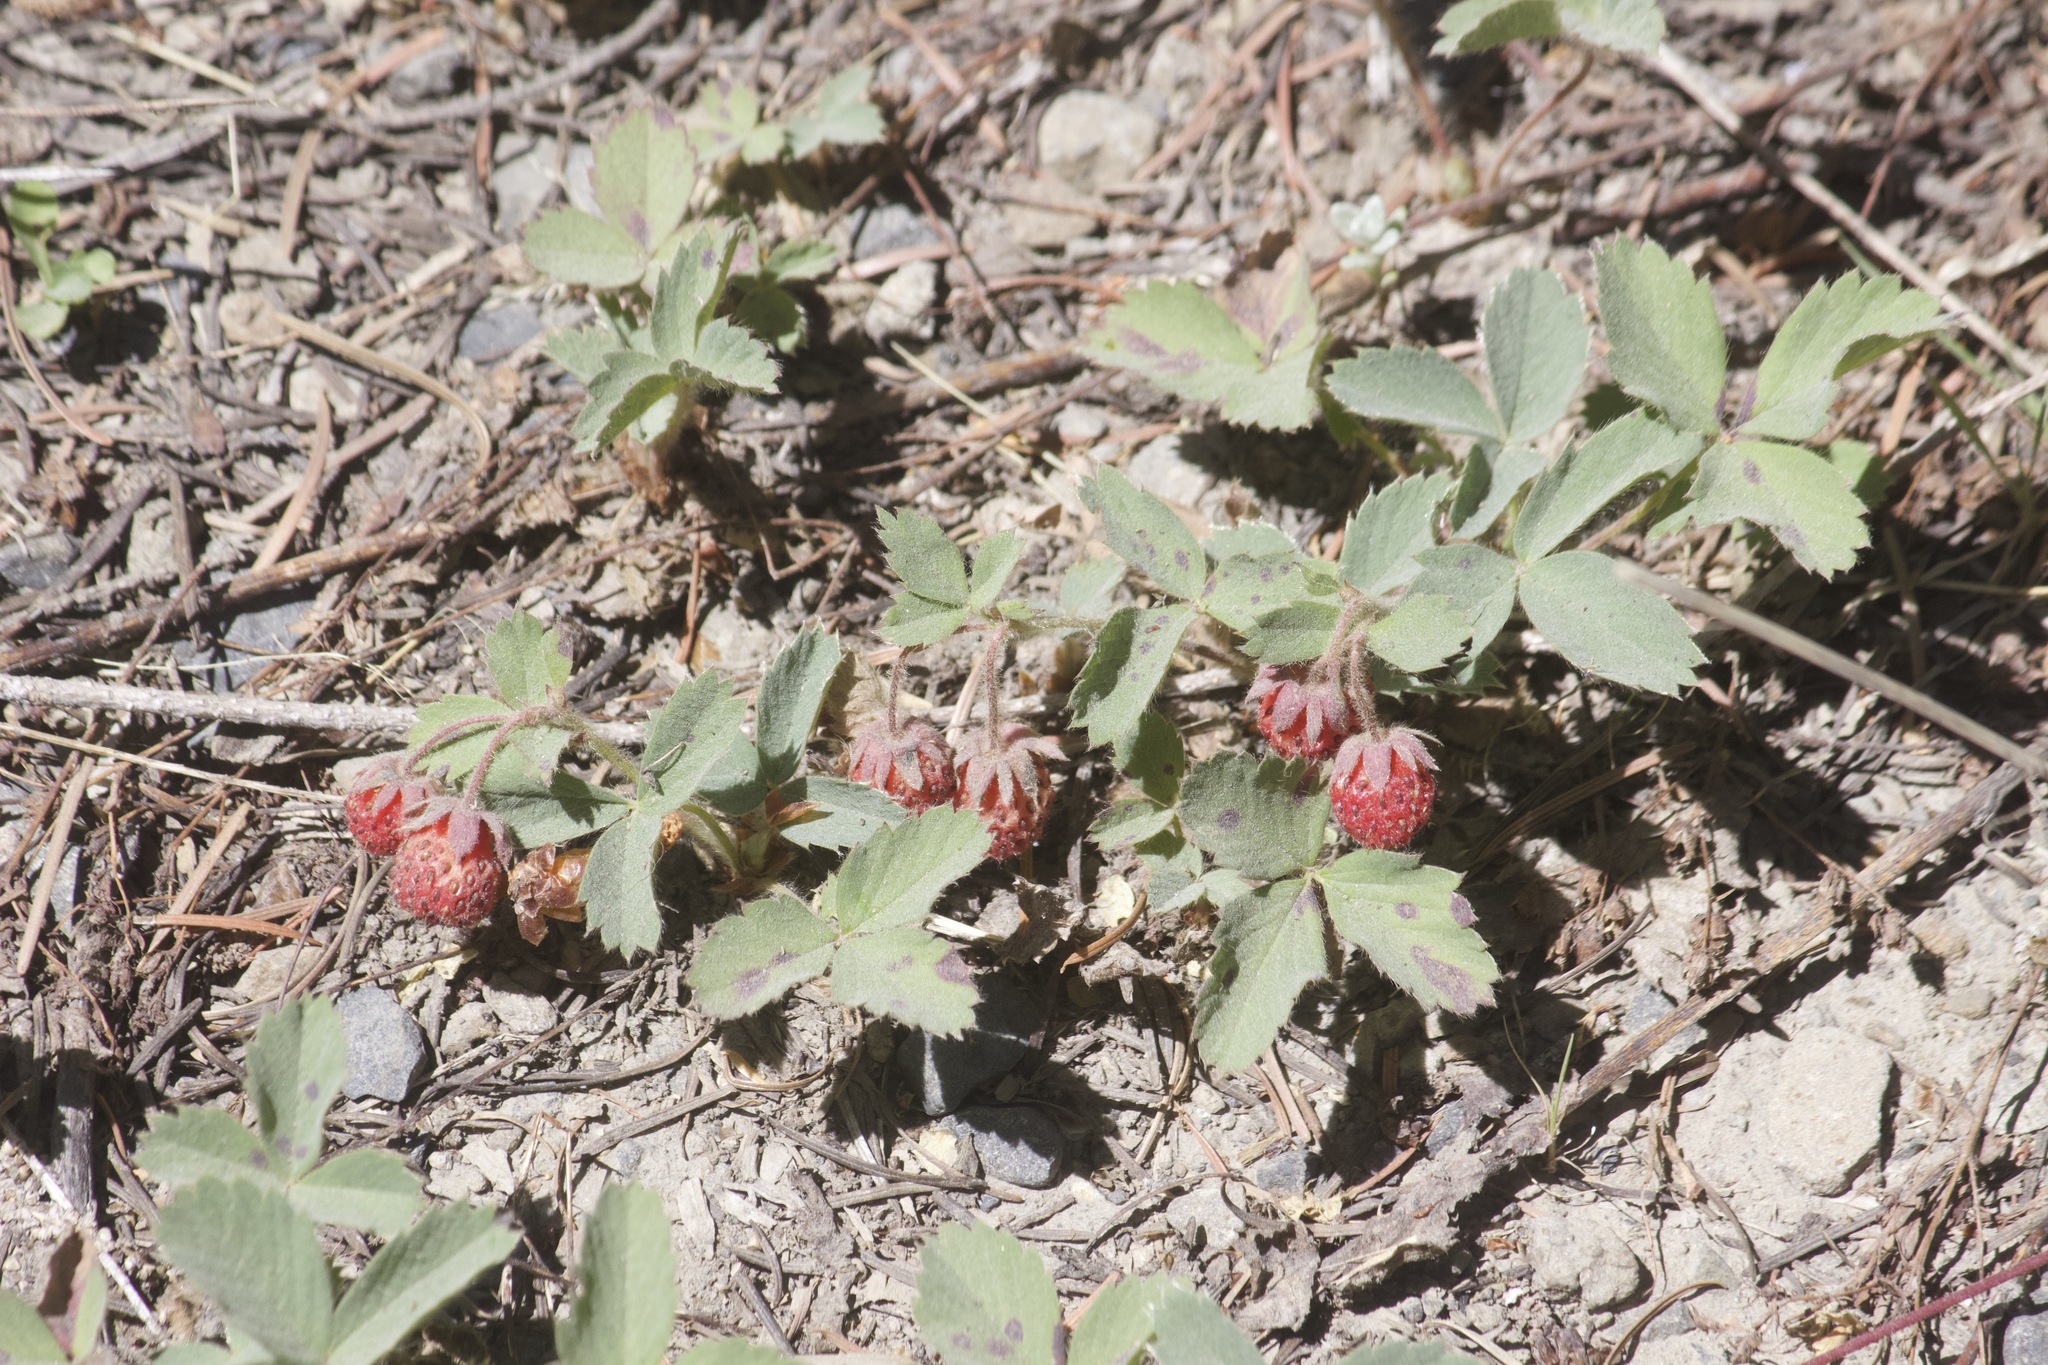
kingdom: Plantae
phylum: Tracheophyta
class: Magnoliopsida
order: Rosales
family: Rosaceae
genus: Fragaria
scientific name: Fragaria virginiana
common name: Thickleaved wild strawberry
